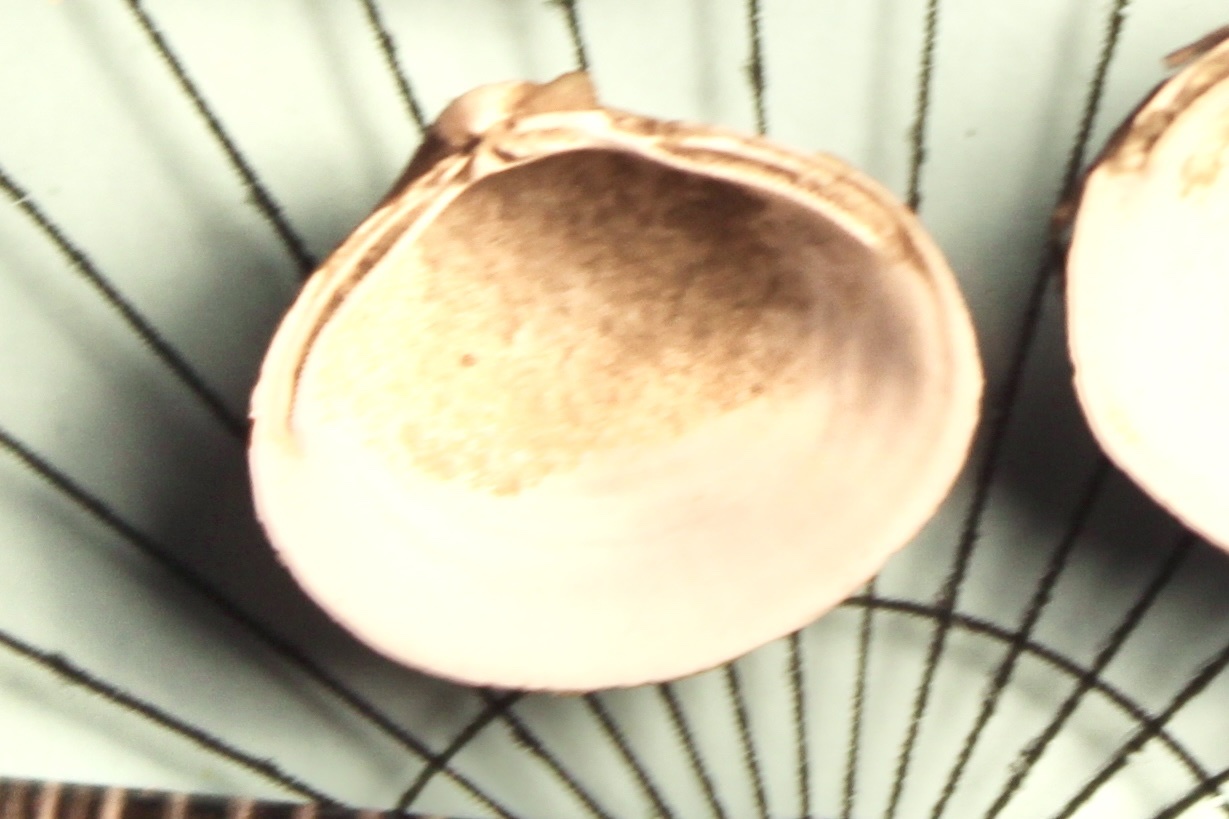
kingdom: Animalia
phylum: Mollusca
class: Bivalvia
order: Venerida
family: Cyrenidae
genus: Corbicula
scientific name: Corbicula fluminea
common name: Asian clam
